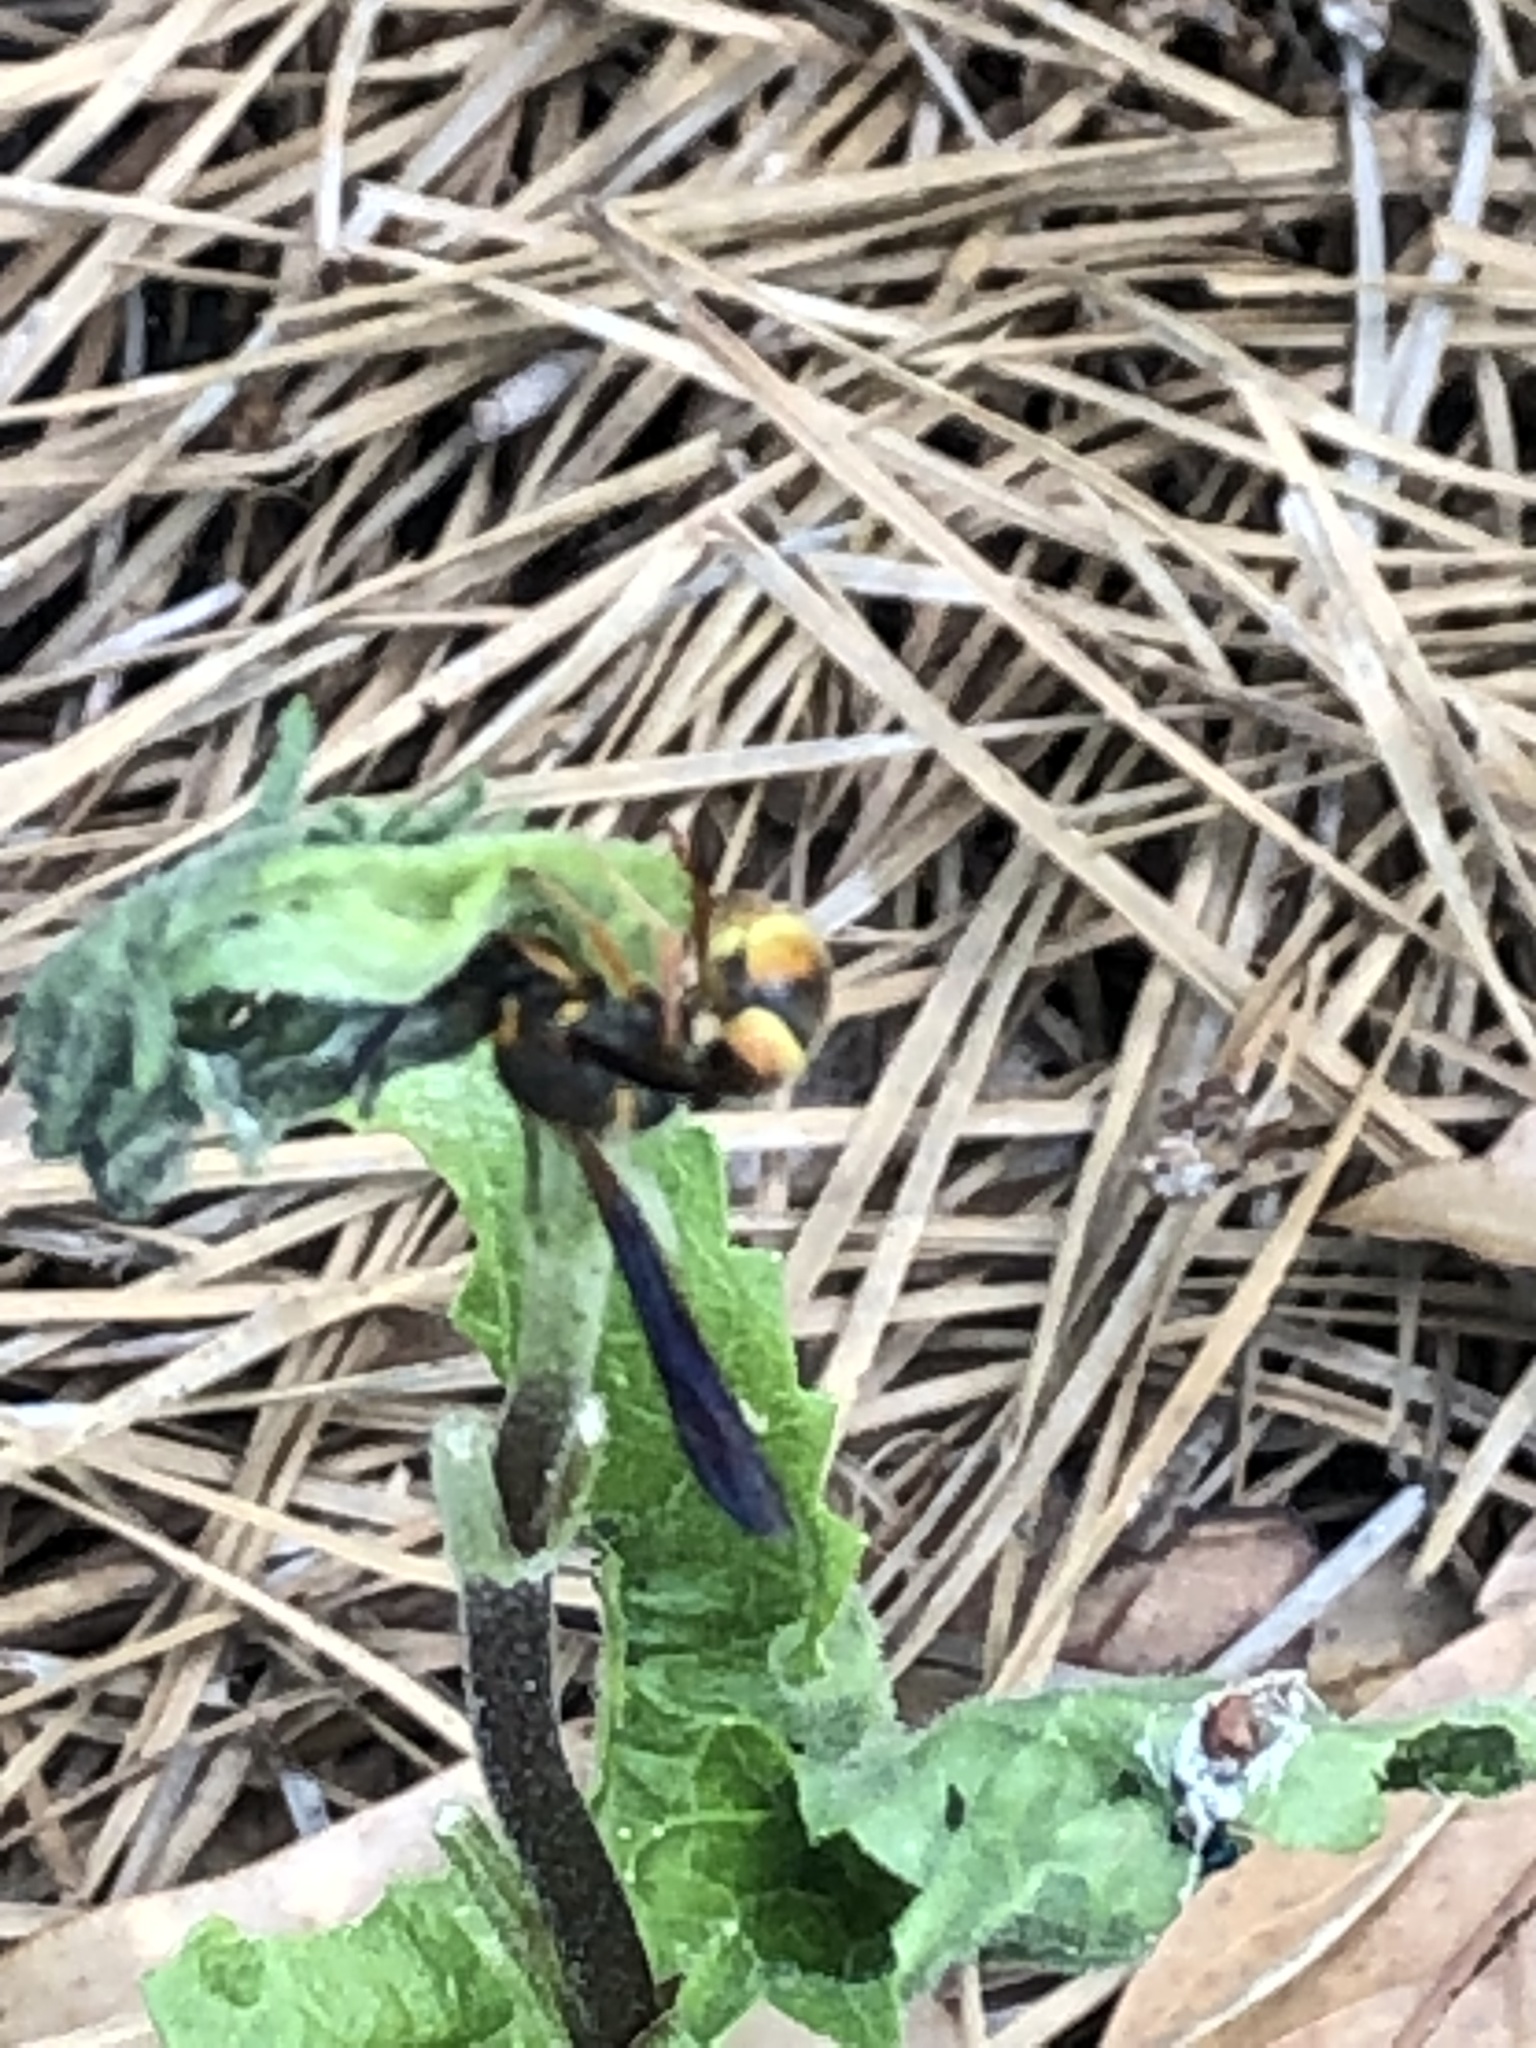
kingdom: Animalia
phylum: Arthropoda
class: Insecta
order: Hymenoptera
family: Vespidae
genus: Ancistrocerus
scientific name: Ancistrocerus
